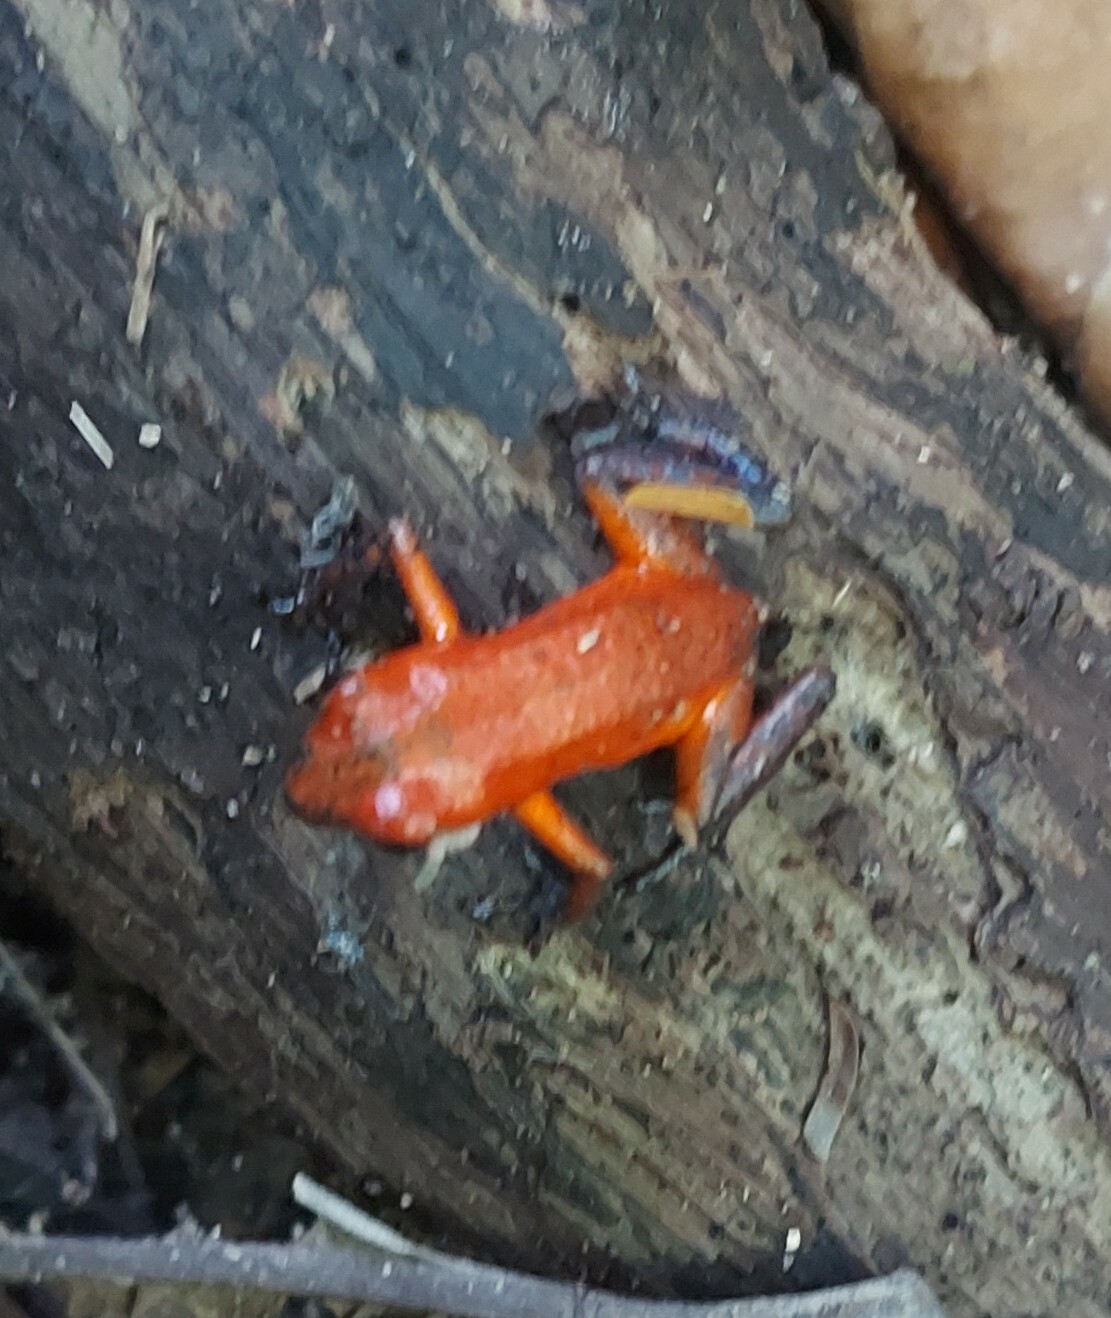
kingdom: Animalia
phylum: Chordata
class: Amphibia
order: Anura
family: Dendrobatidae
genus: Oophaga
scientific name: Oophaga pumilio
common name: Flaming poison frog
